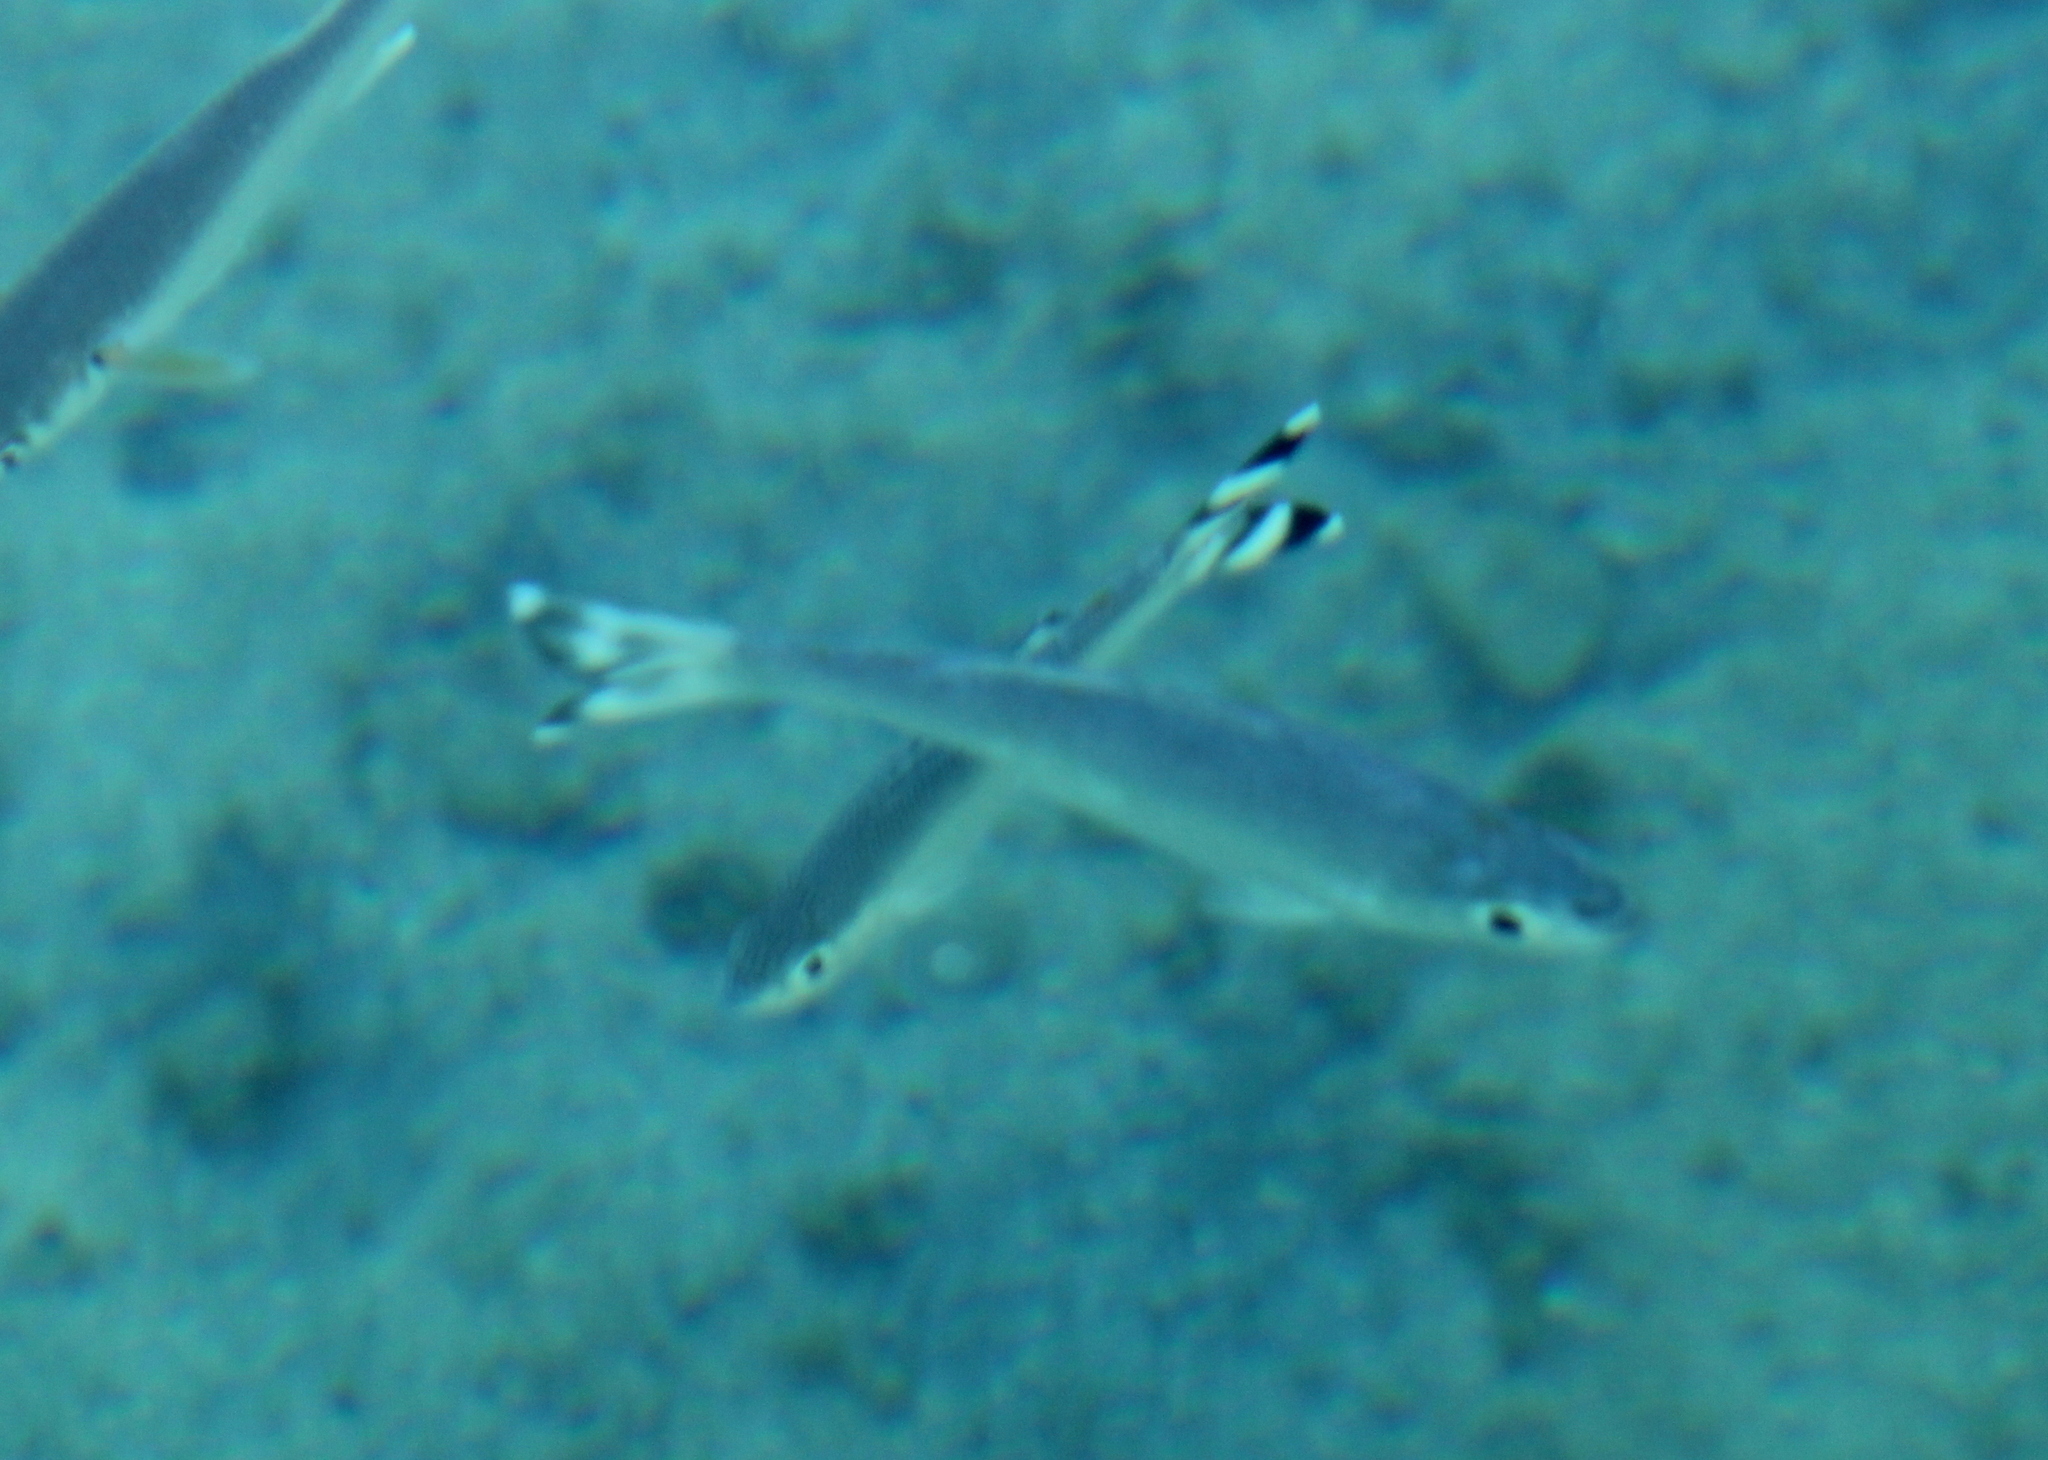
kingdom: Animalia
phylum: Chordata
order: Perciformes
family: Kuhliidae
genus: Kuhlia
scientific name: Kuhlia mugil
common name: Barred flagtail
